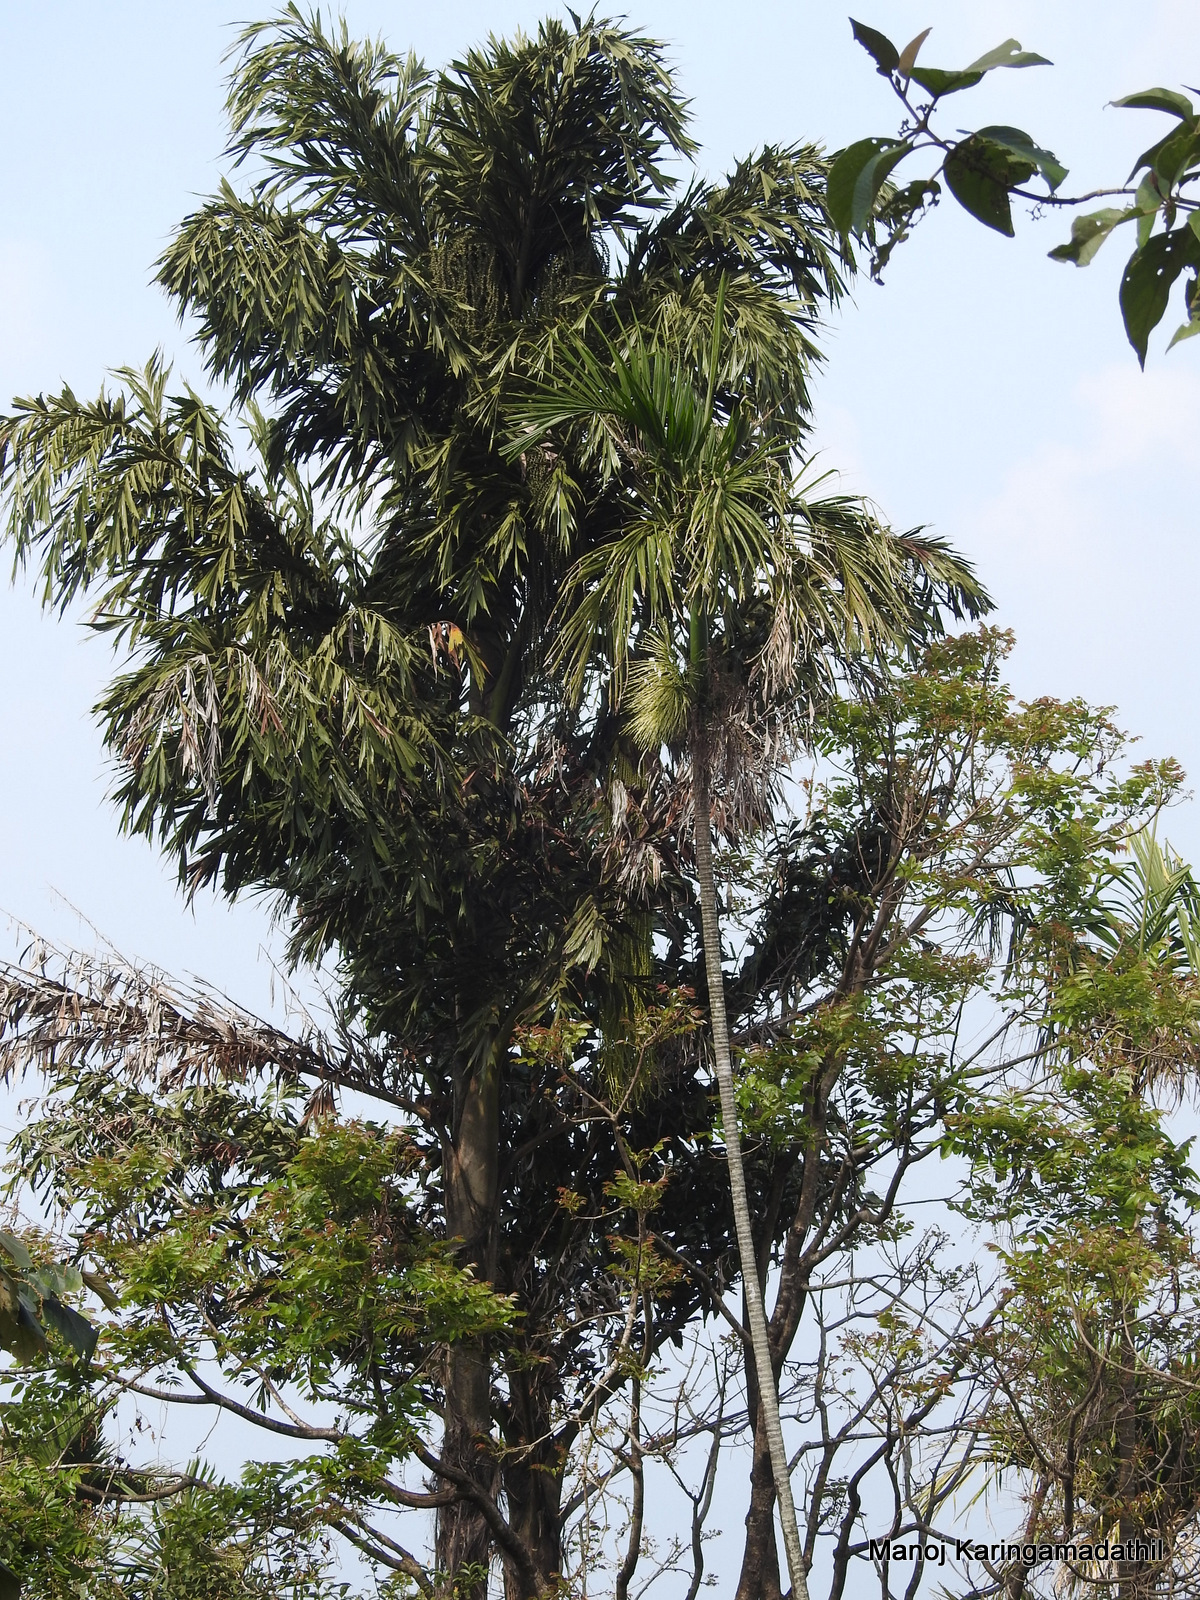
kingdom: Plantae
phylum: Tracheophyta
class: Liliopsida
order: Arecales
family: Arecaceae
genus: Caryota
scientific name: Caryota urens
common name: Jaggery palm
